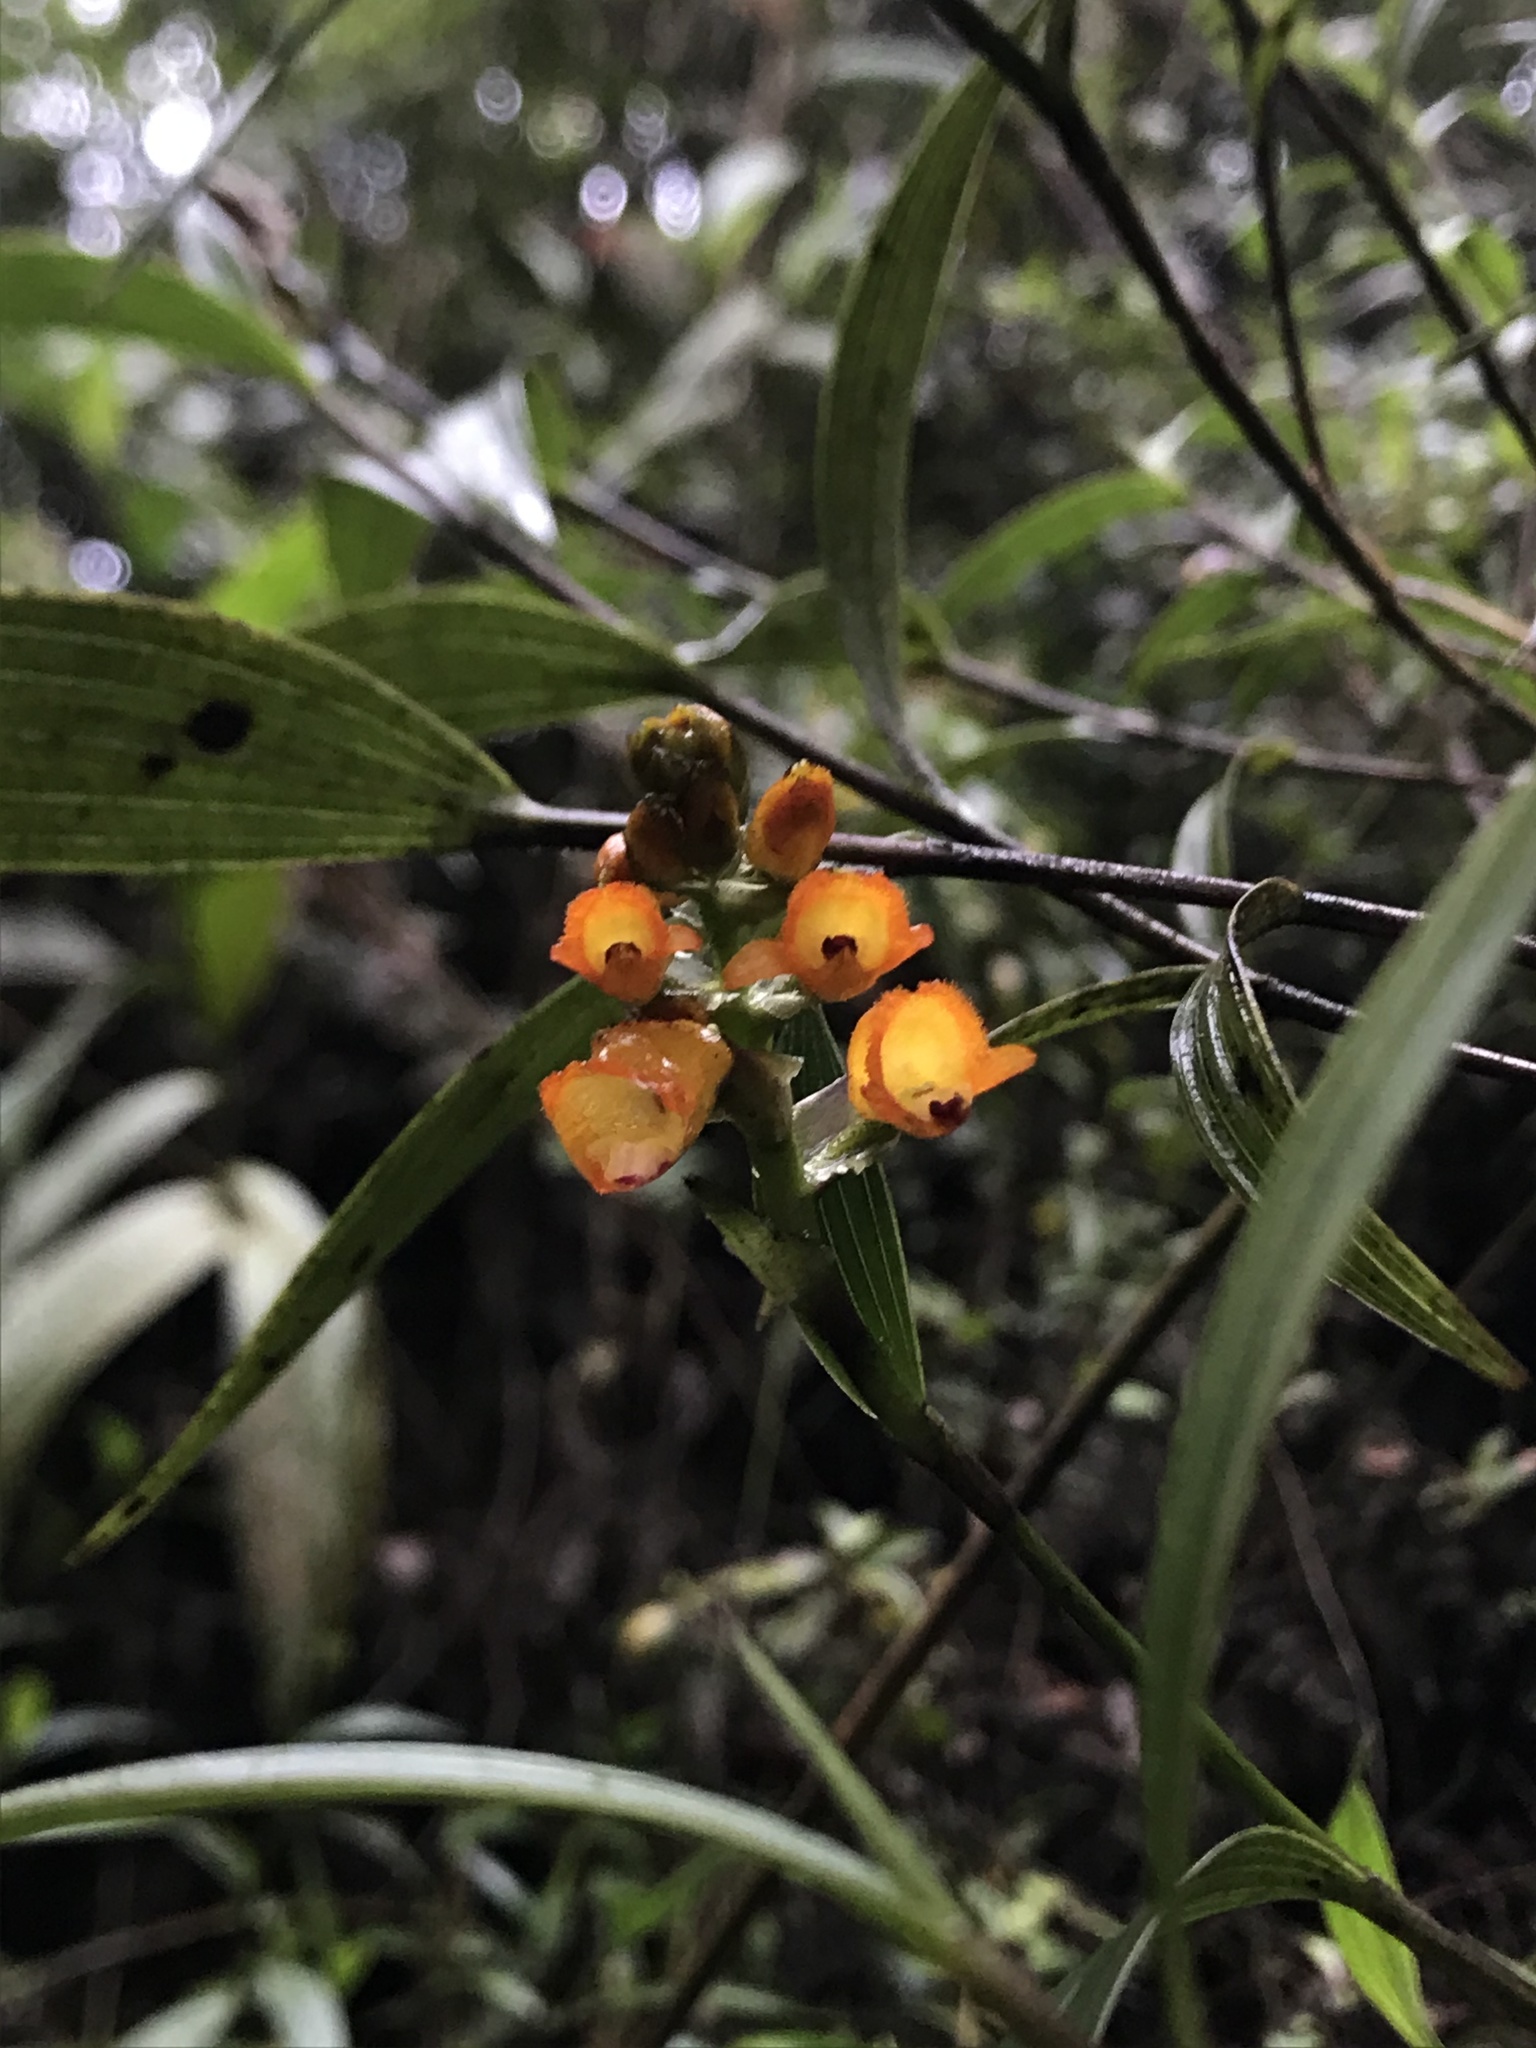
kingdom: Plantae
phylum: Tracheophyta
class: Liliopsida
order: Asparagales
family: Orchidaceae
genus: Elleanthus
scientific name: Elleanthus aurantiacus
